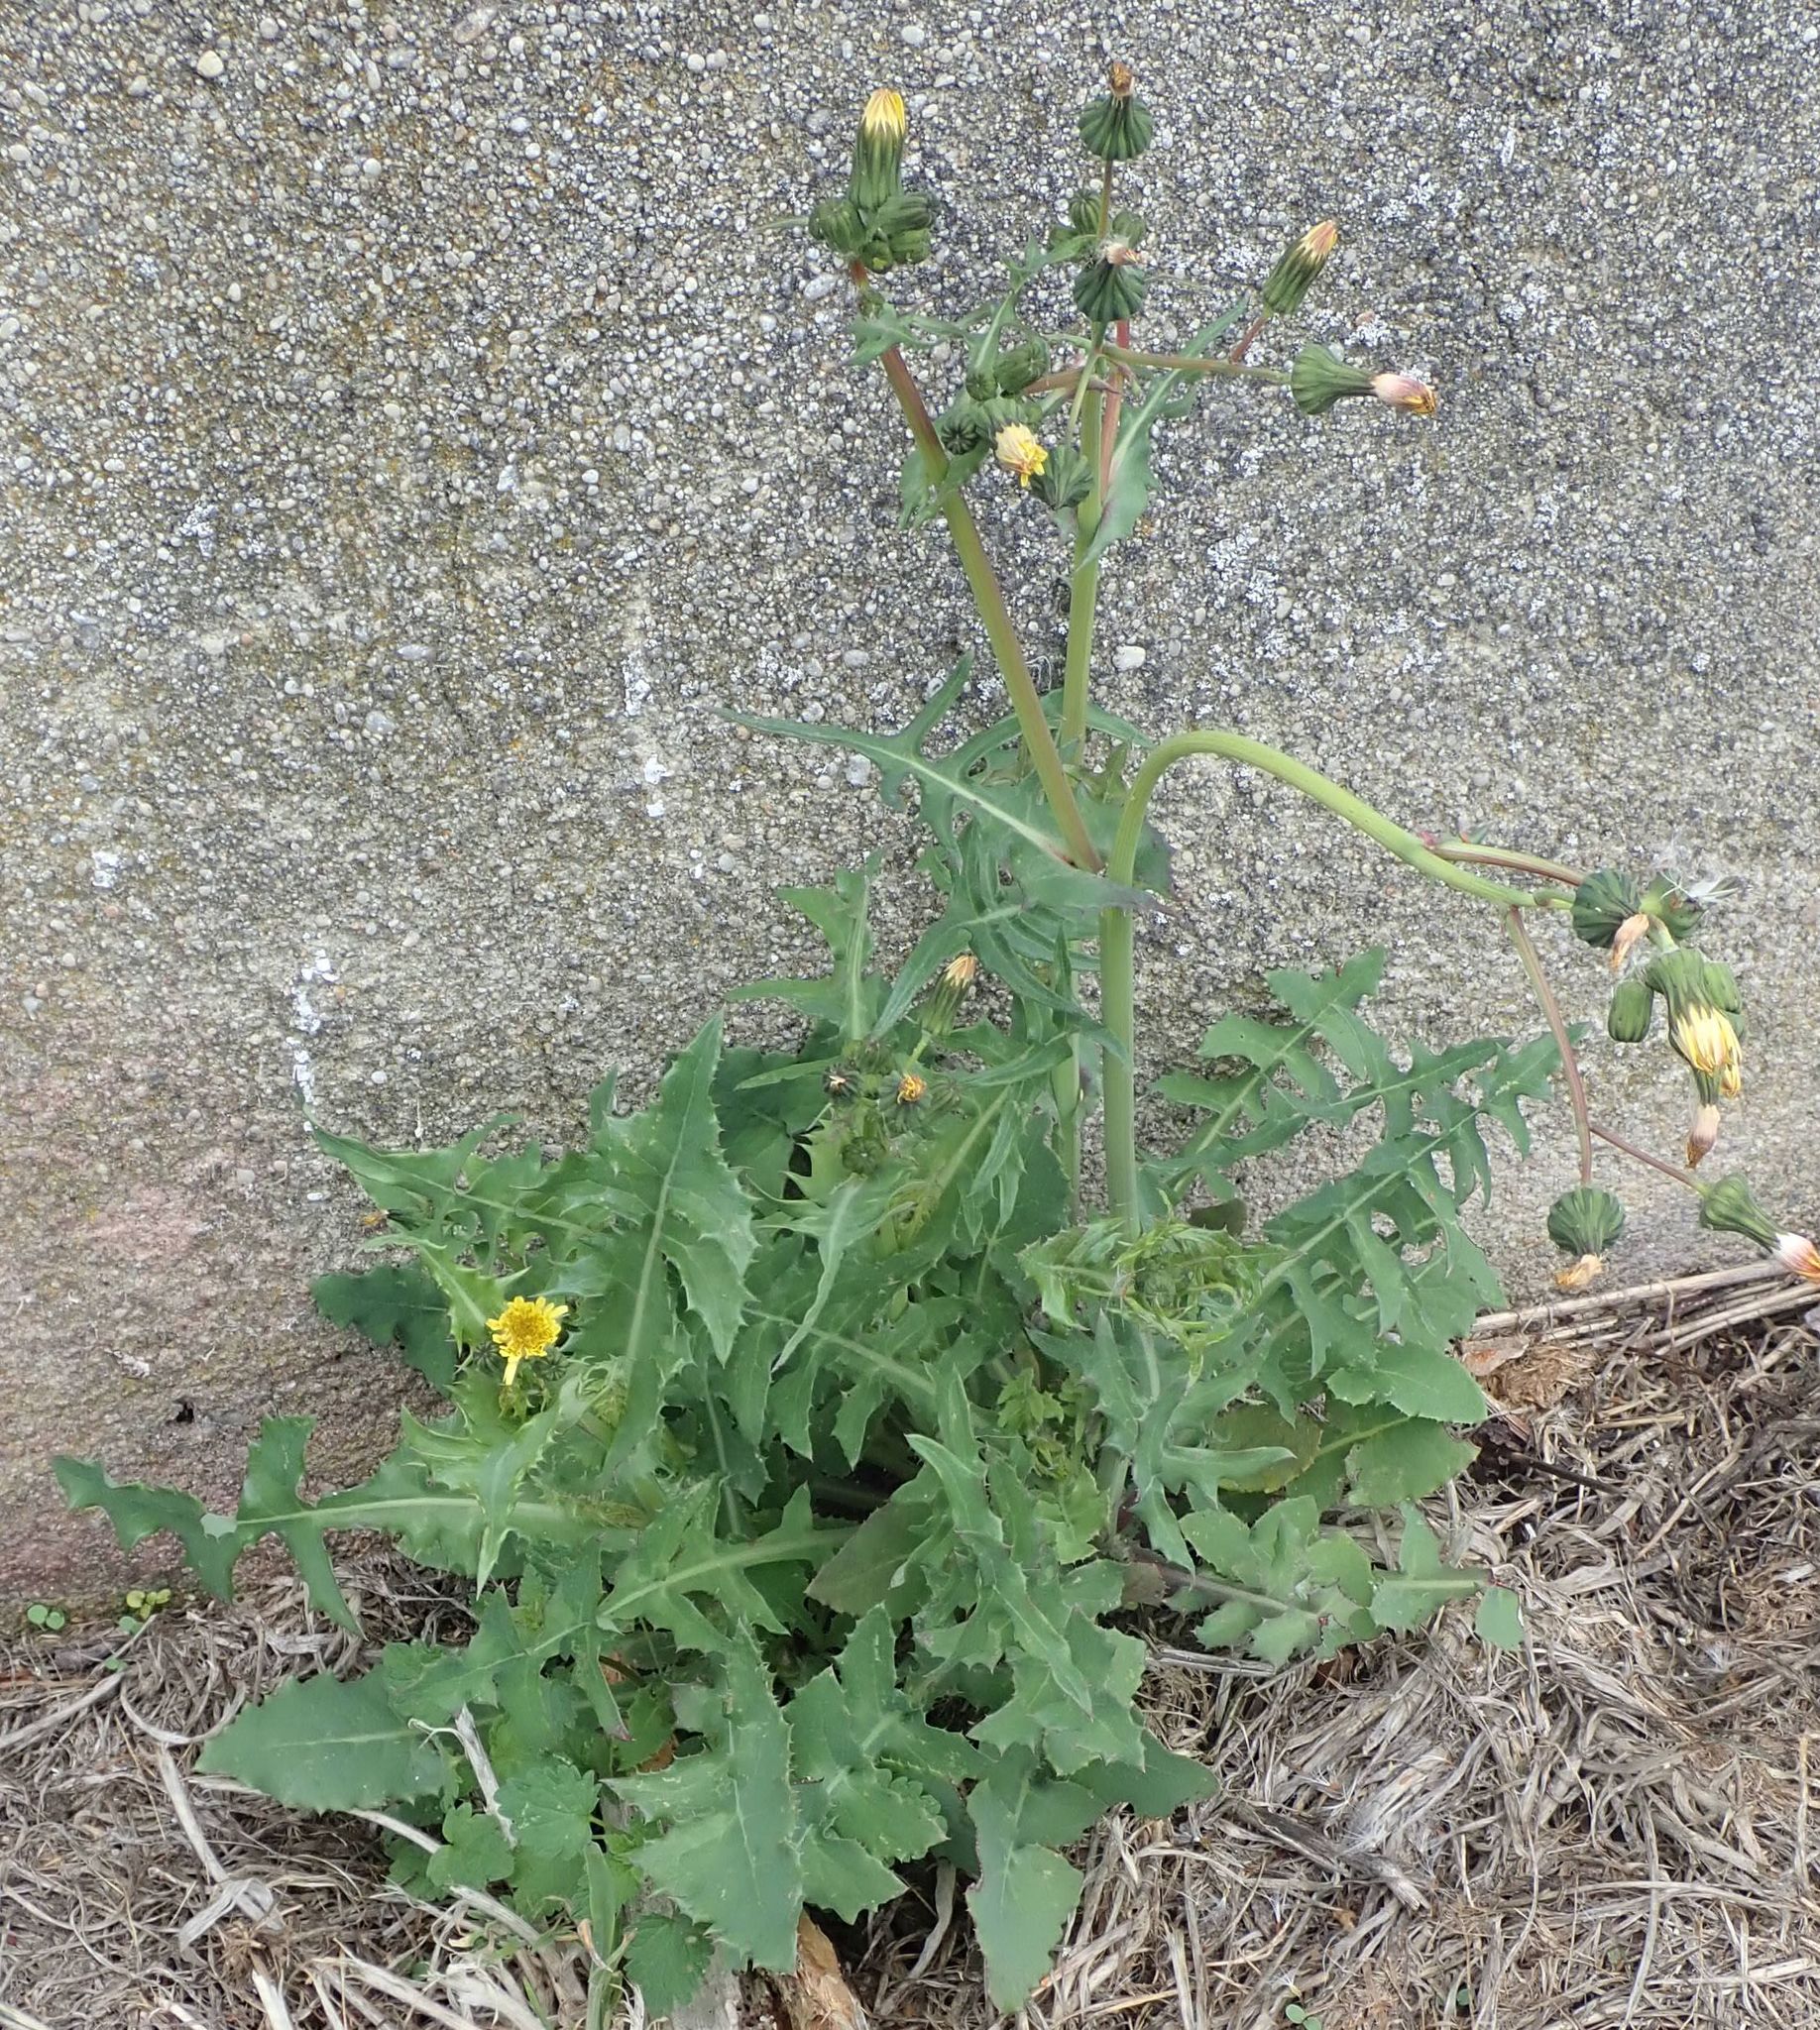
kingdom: Plantae
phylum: Tracheophyta
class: Magnoliopsida
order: Asterales
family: Asteraceae
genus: Sonchus
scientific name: Sonchus oleraceus
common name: Common sowthistle
